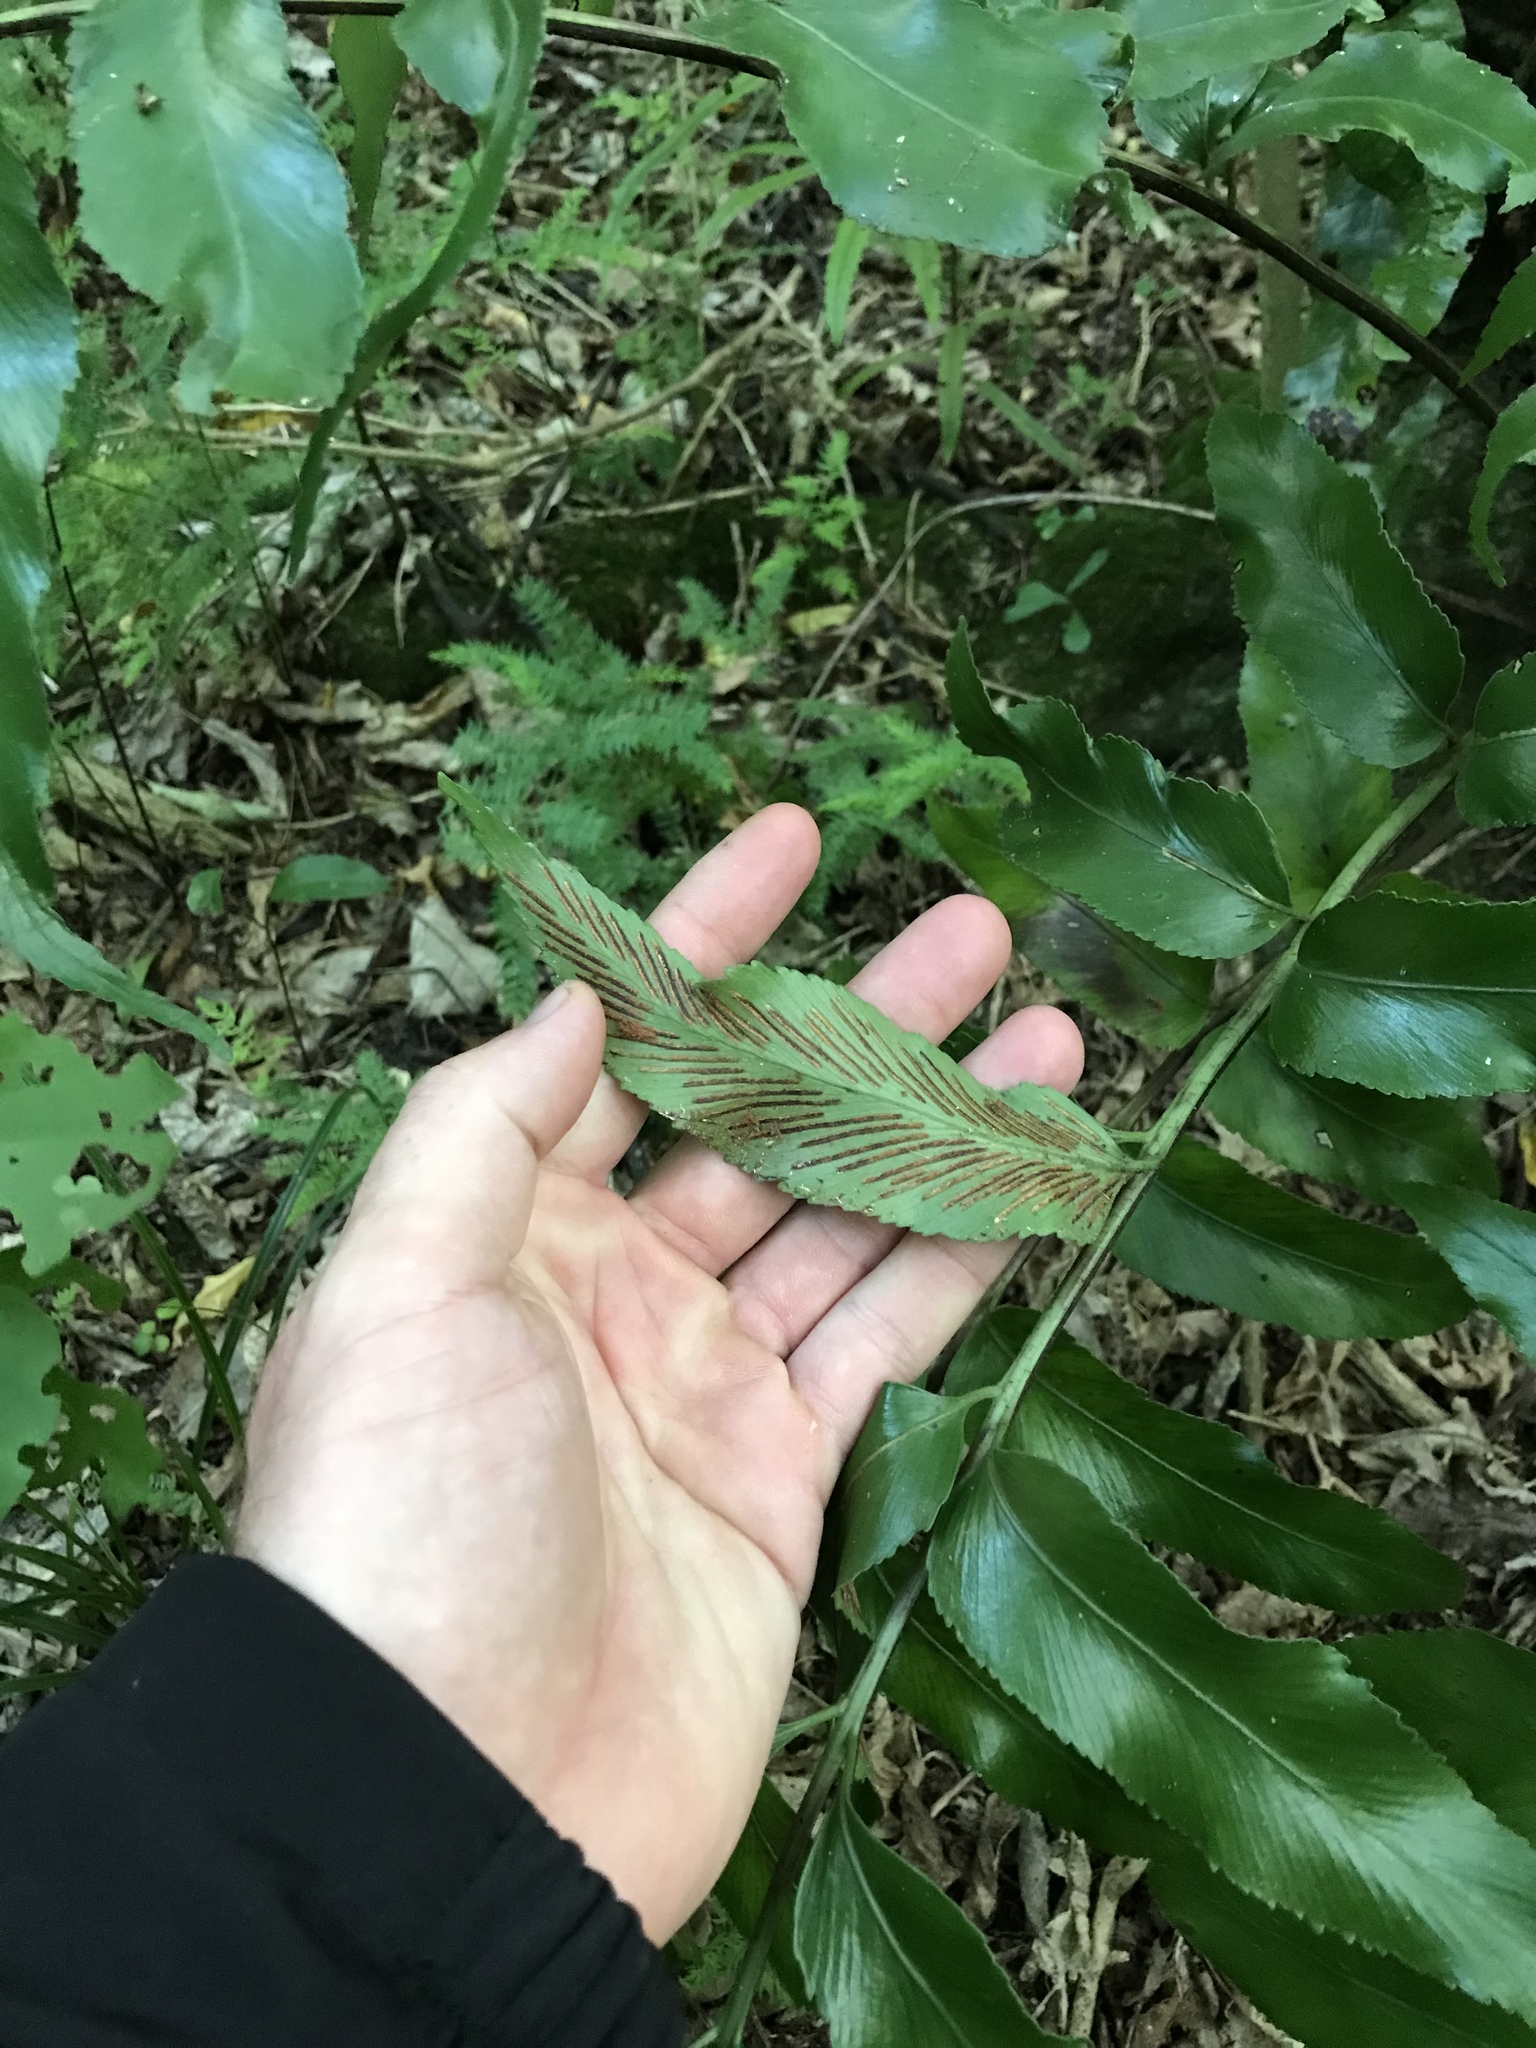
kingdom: Plantae
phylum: Tracheophyta
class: Polypodiopsida
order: Polypodiales
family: Aspleniaceae
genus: Asplenium
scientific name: Asplenium oblongifolium
